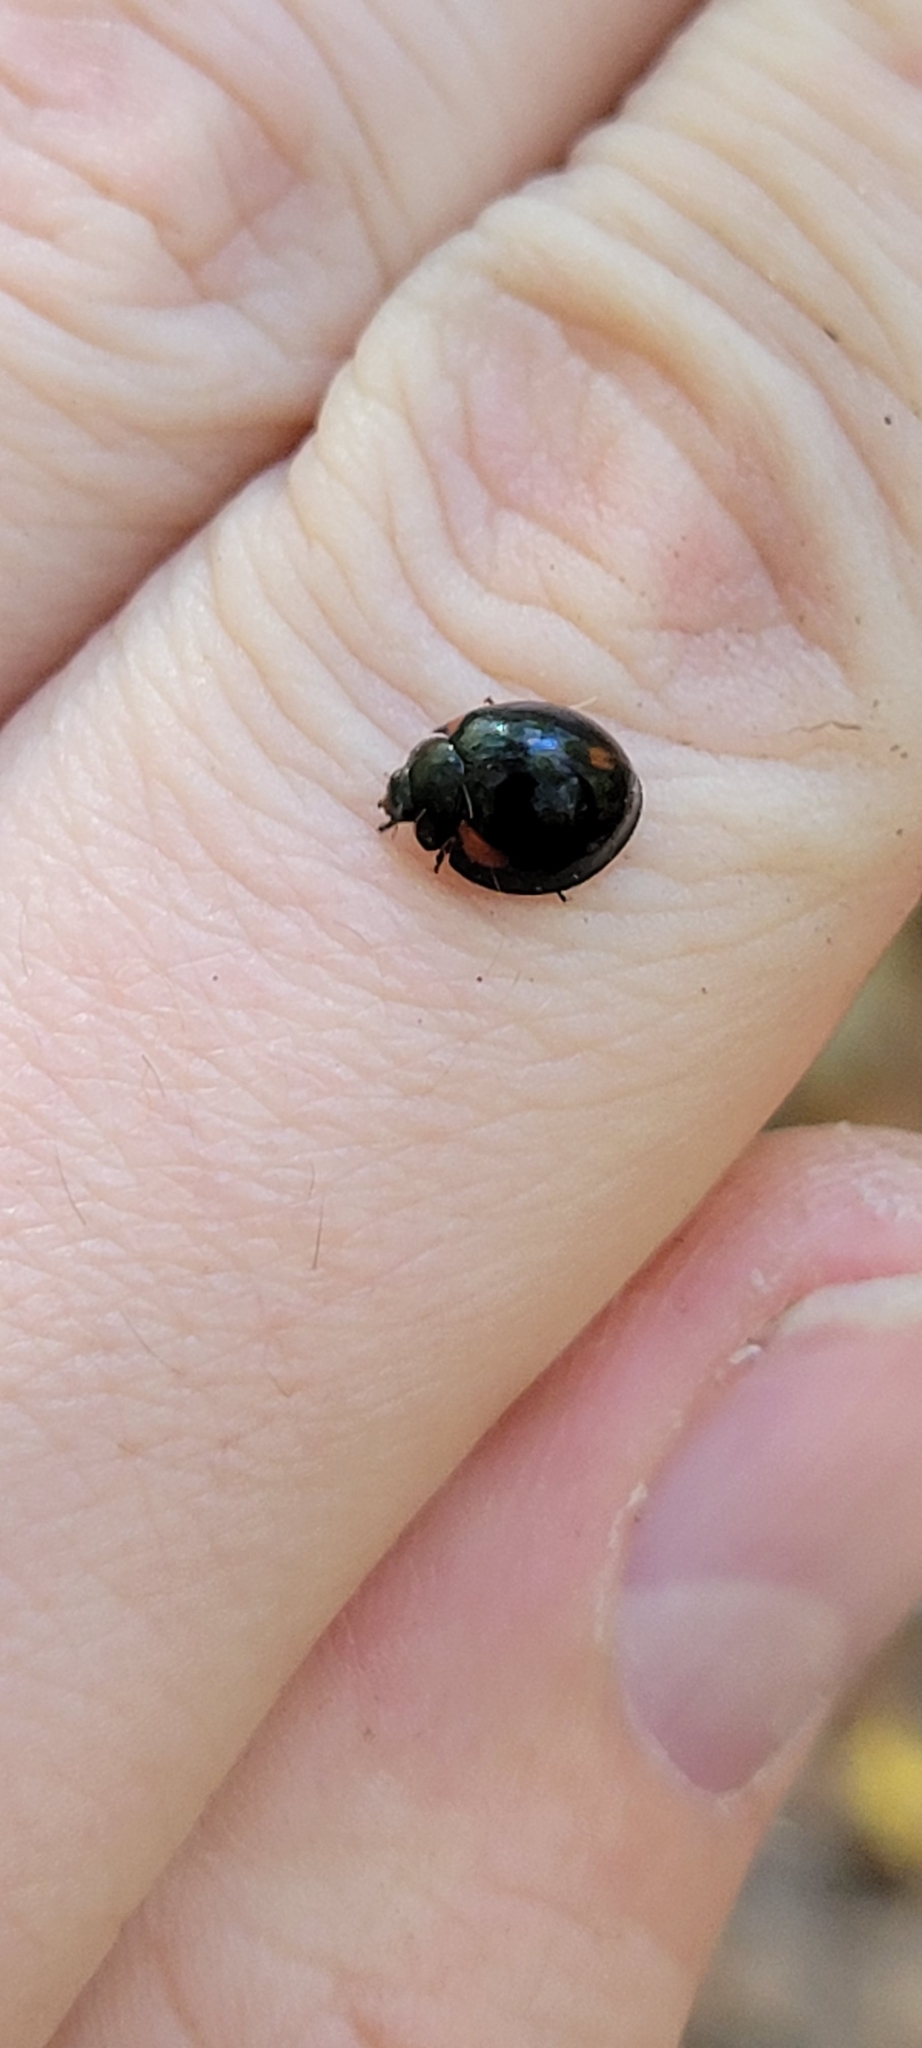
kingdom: Animalia
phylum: Arthropoda
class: Insecta
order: Coleoptera
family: Coccinellidae
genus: Axion
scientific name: Axion tripustulatum
